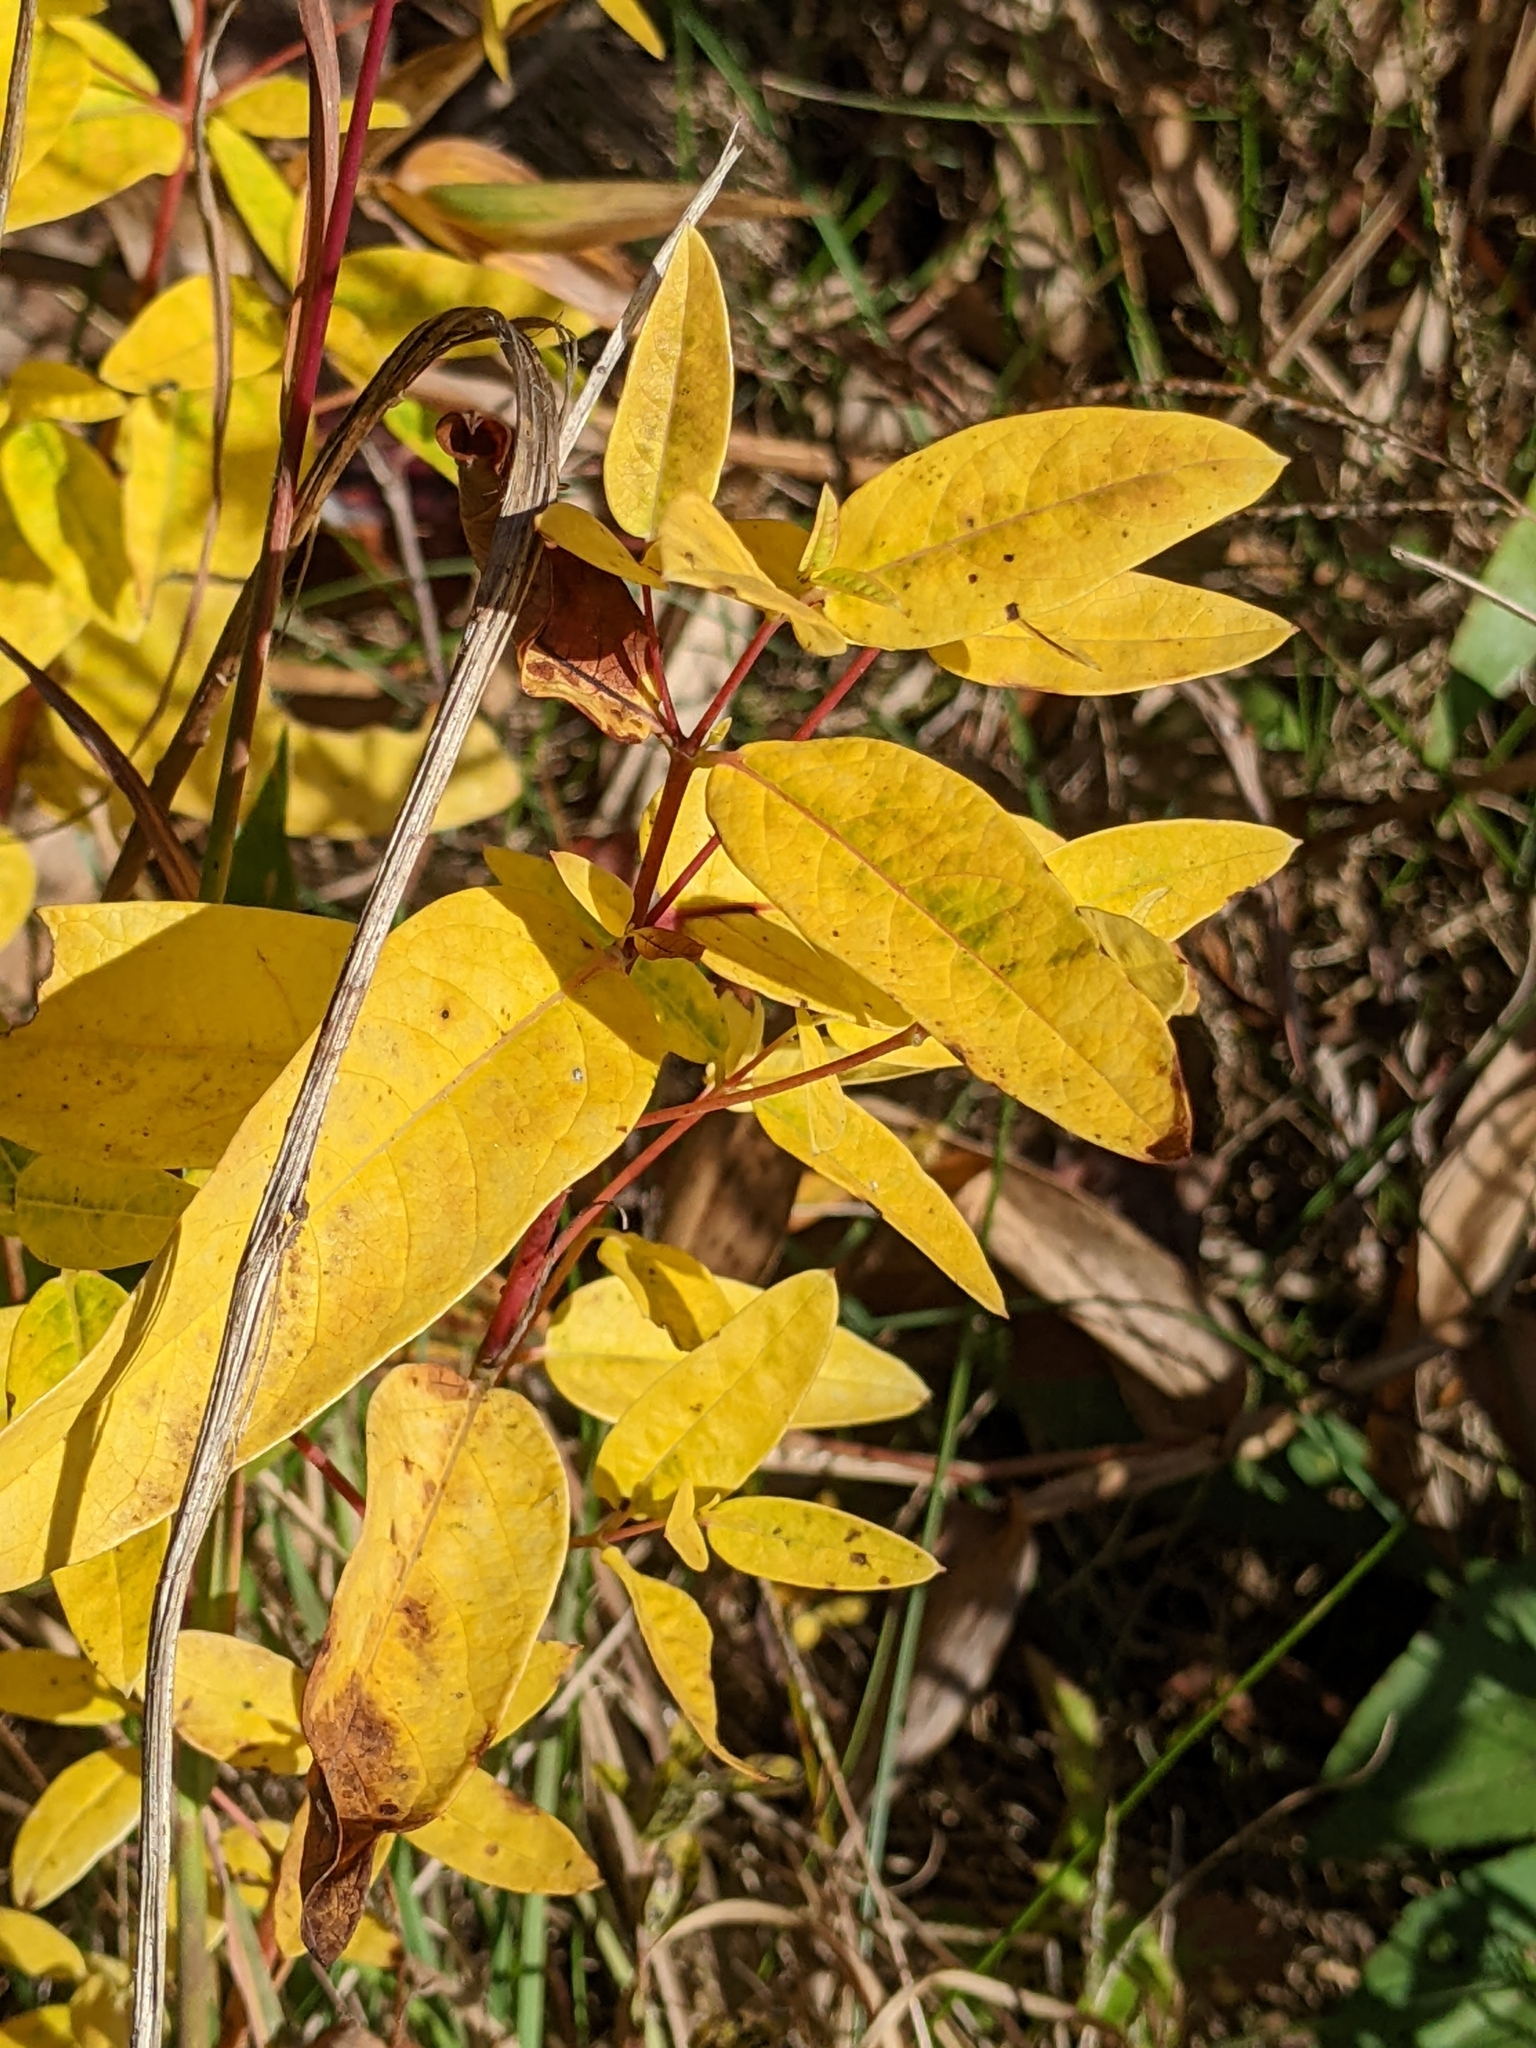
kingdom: Plantae
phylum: Tracheophyta
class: Magnoliopsida
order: Gentianales
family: Apocynaceae
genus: Apocynum
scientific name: Apocynum cannabinum
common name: Hemp dogbane
